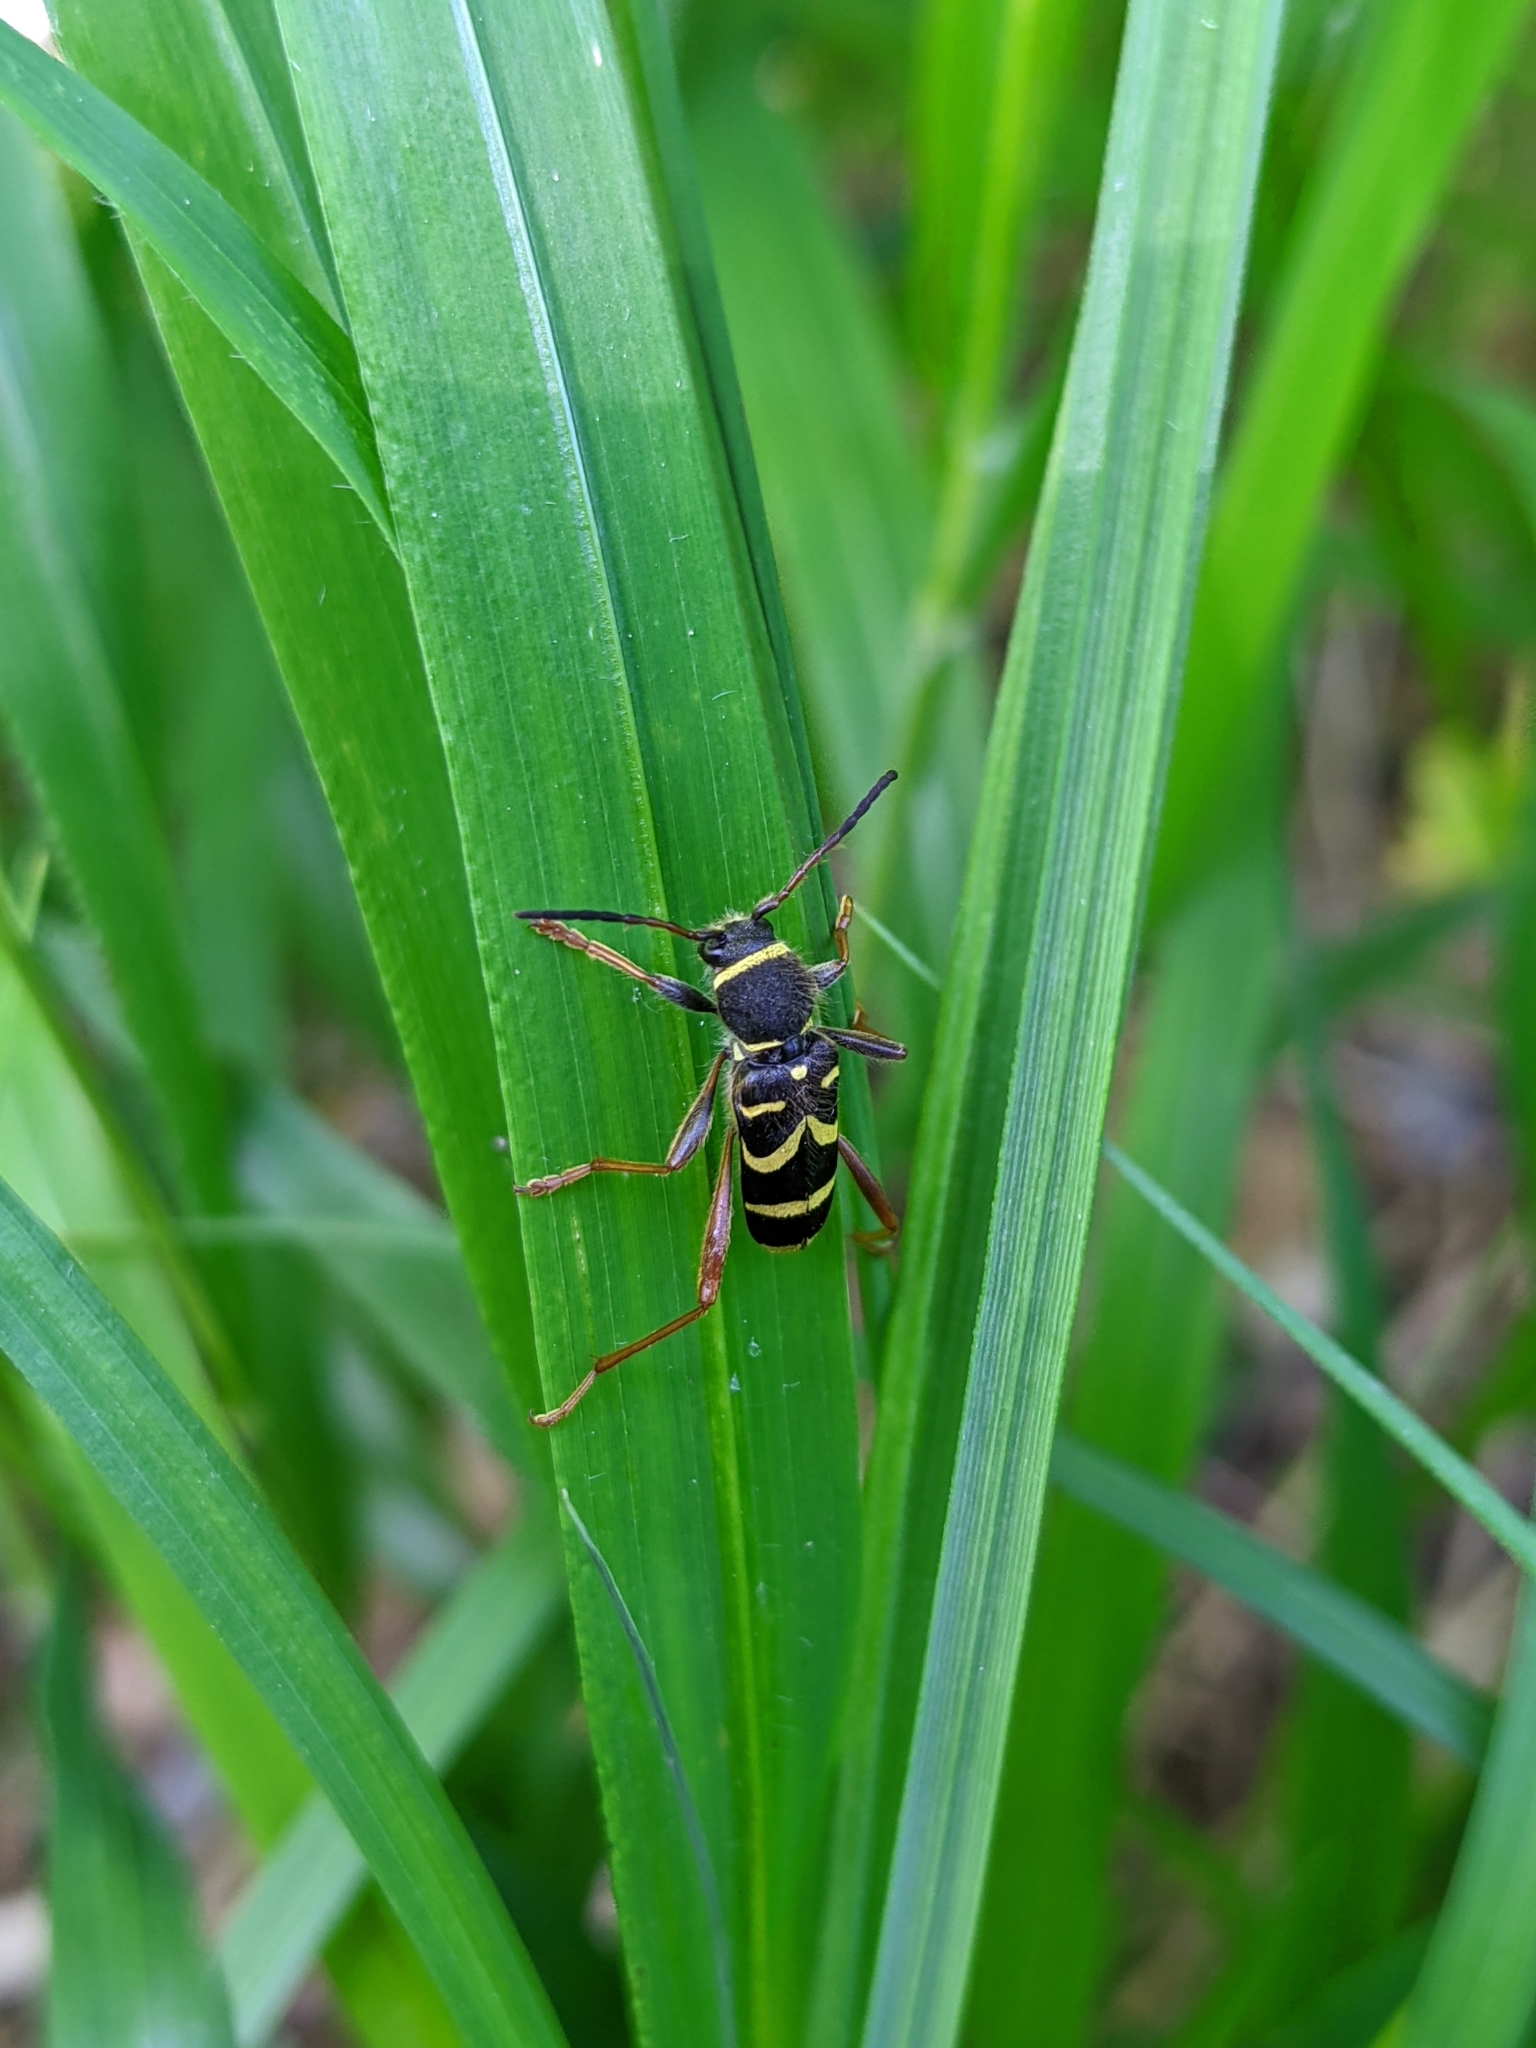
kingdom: Animalia
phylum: Arthropoda
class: Insecta
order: Coleoptera
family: Cerambycidae
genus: Clytus
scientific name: Clytus arietis
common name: Wasp beetle
